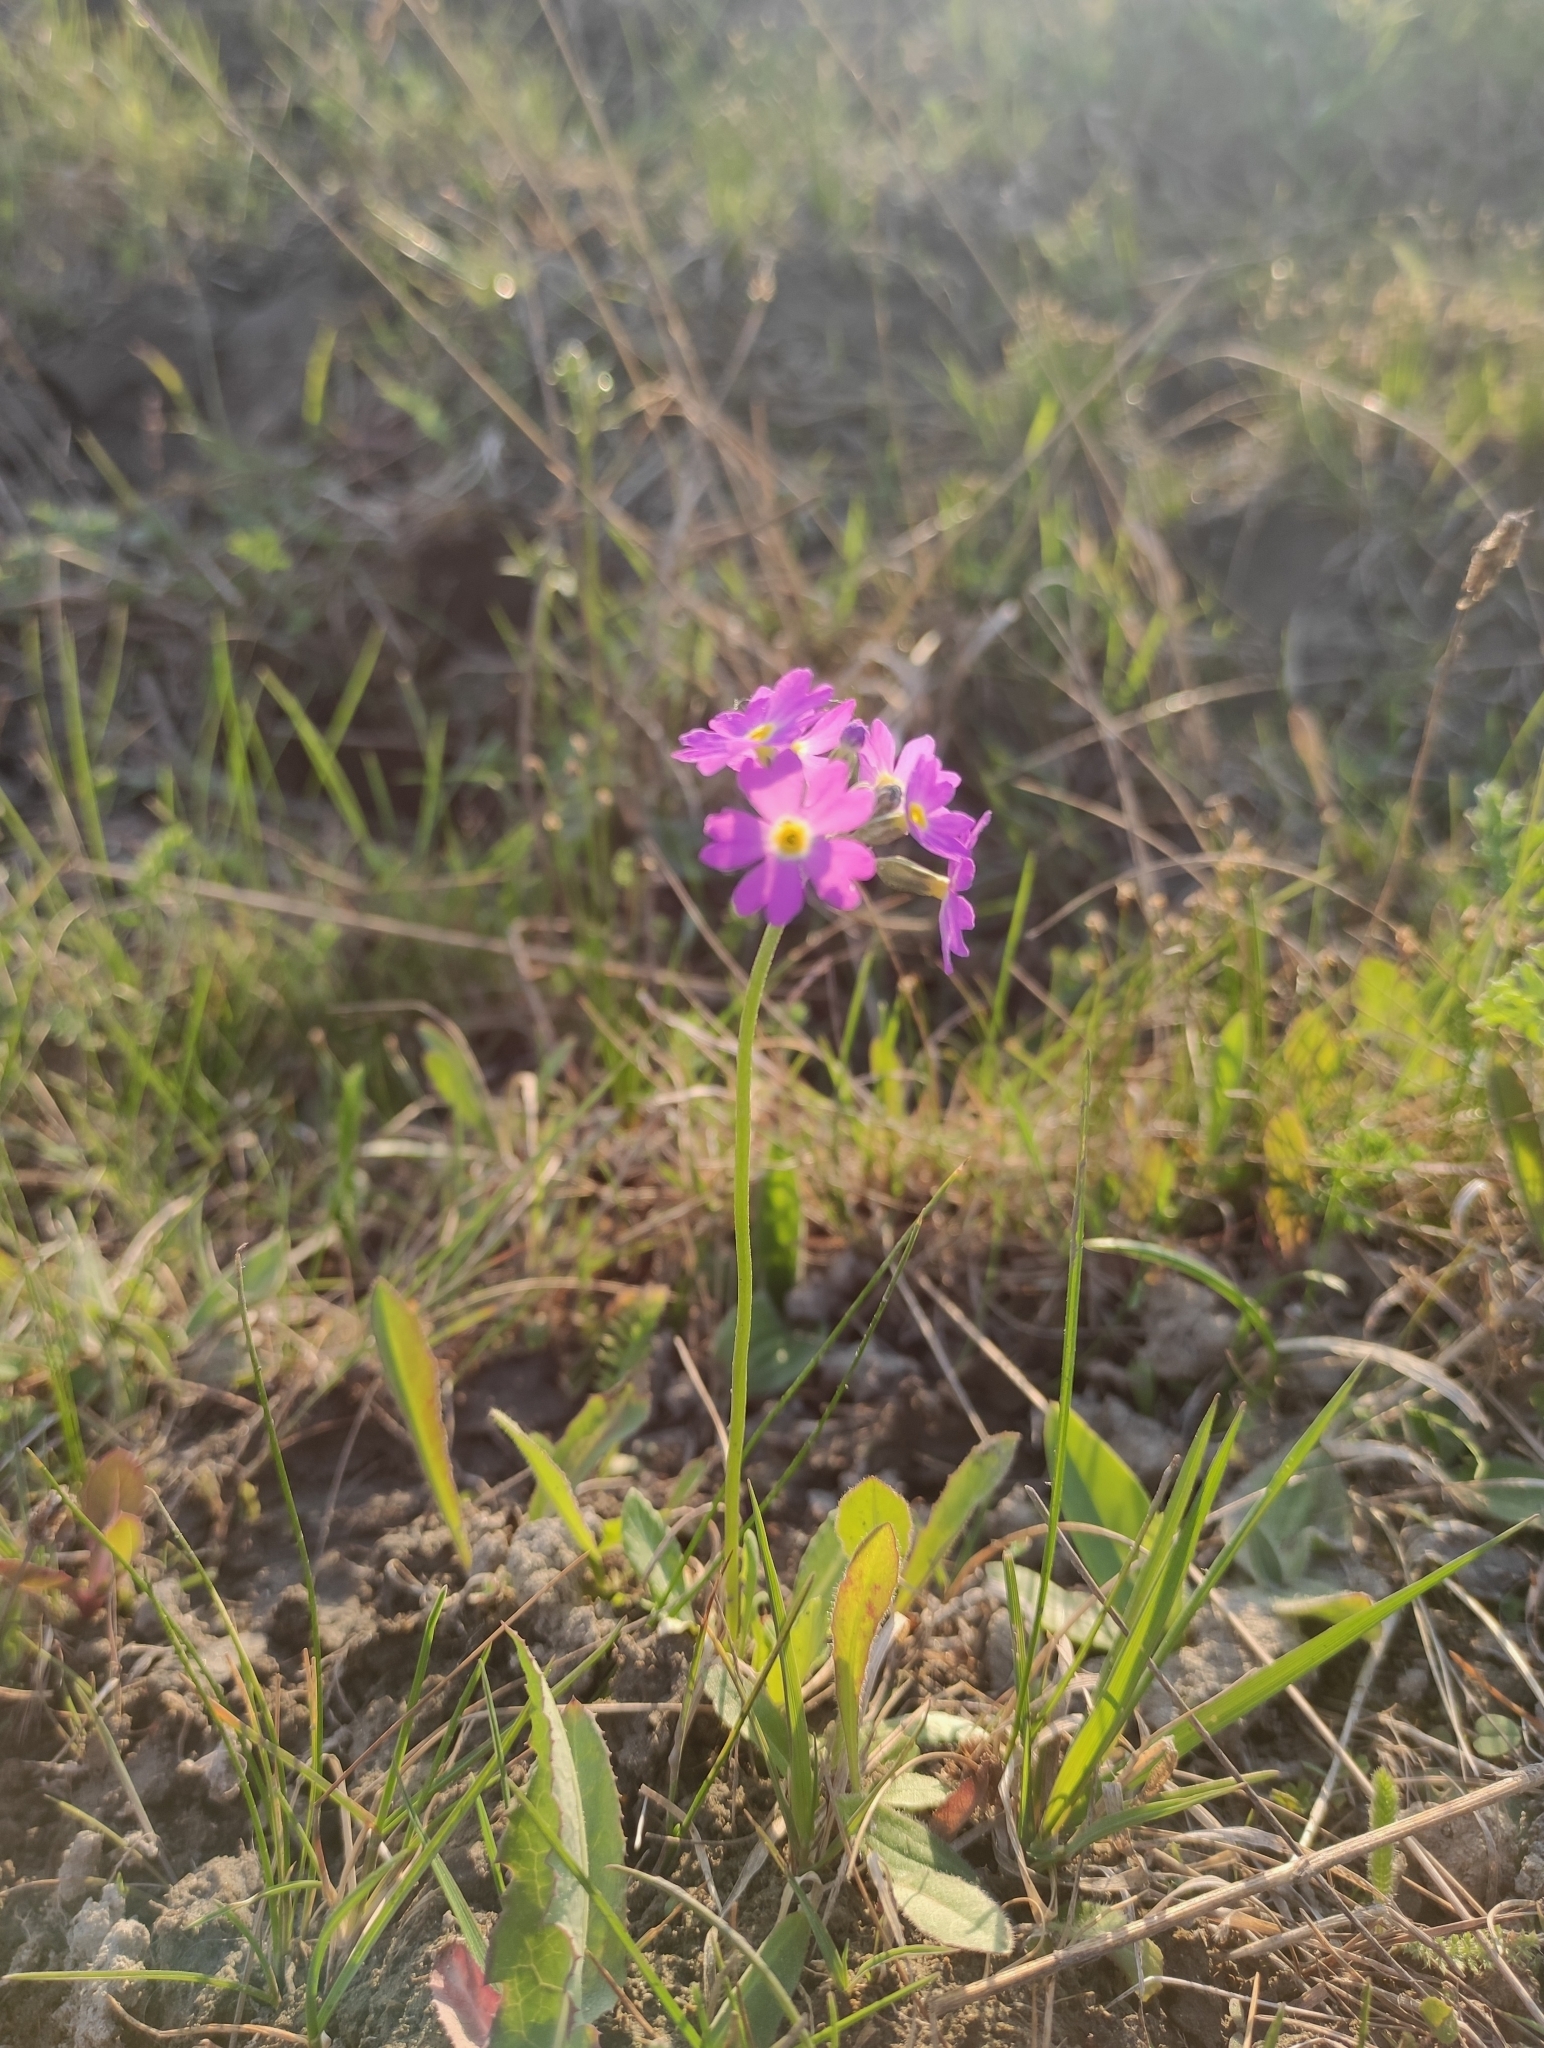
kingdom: Plantae
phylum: Tracheophyta
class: Magnoliopsida
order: Ericales
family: Primulaceae
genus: Primula
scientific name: Primula farinosa
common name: Bird's-eye primrose
